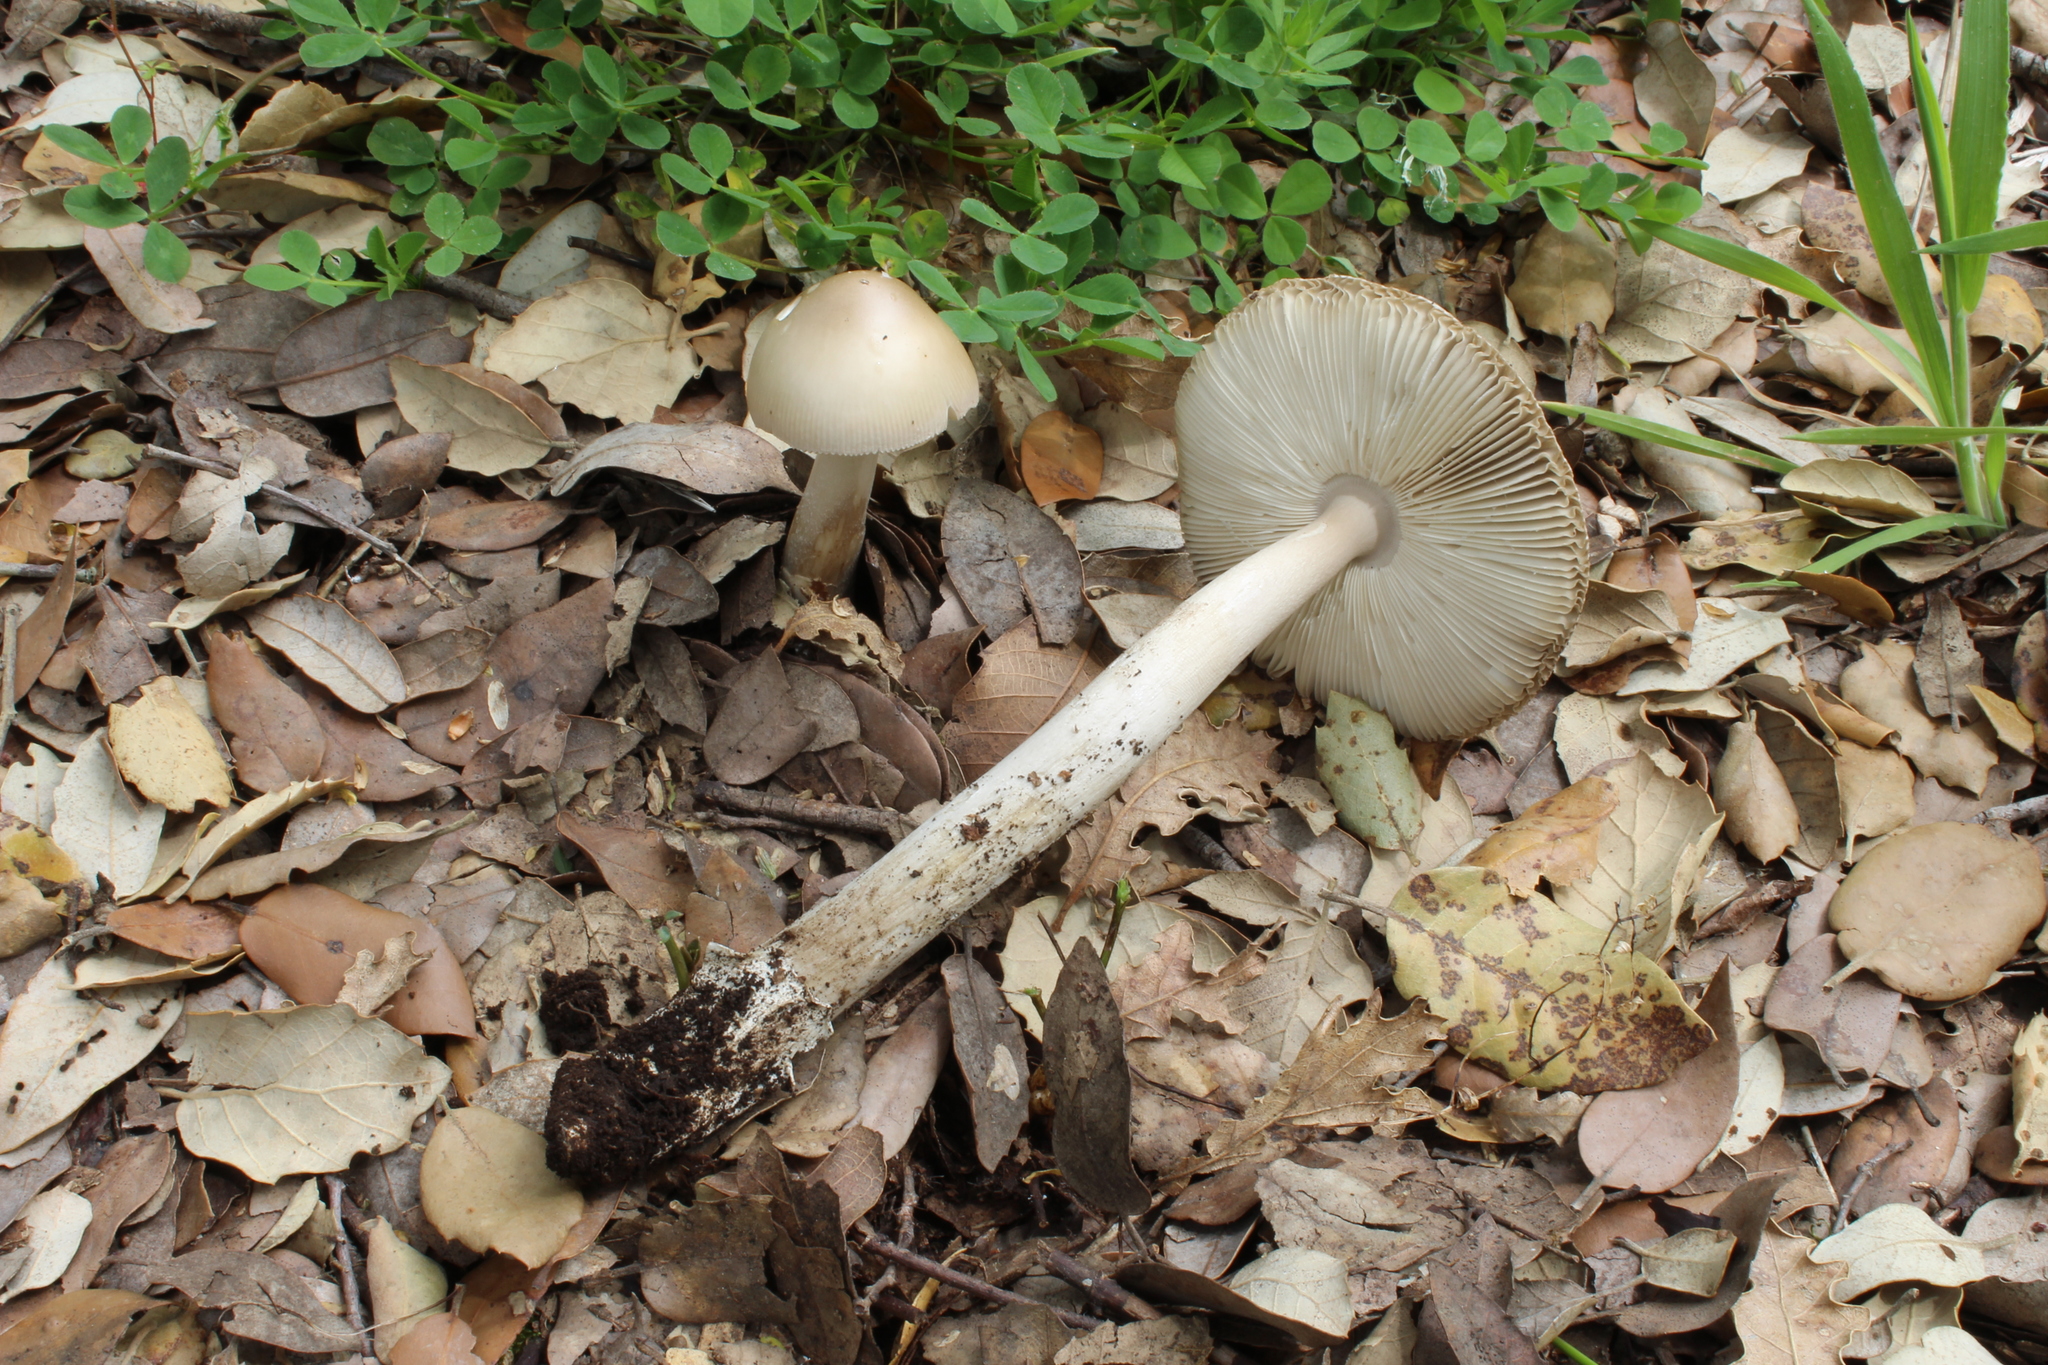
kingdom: Fungi
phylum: Basidiomycota
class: Agaricomycetes
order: Agaricales
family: Amanitaceae
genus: Amanita
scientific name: Amanita lividopallescens
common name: Pale grisette
